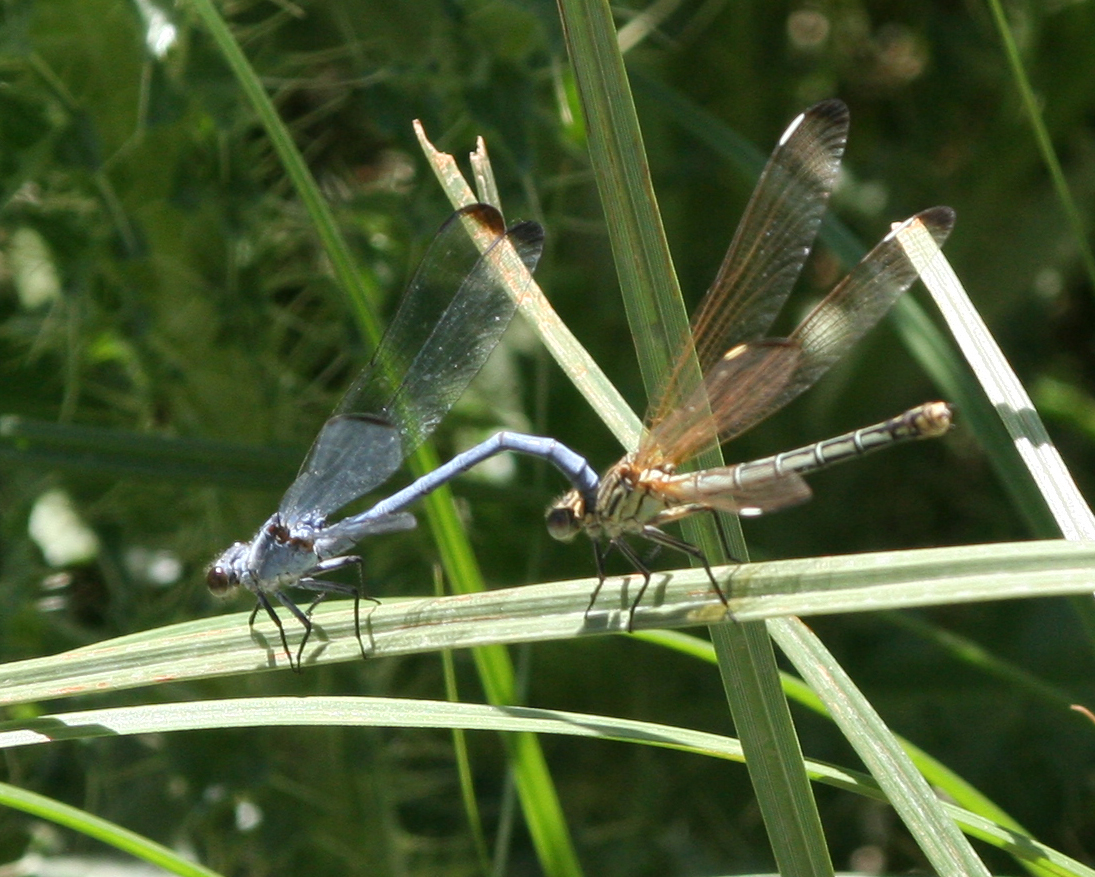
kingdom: Animalia
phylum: Arthropoda
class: Insecta
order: Odonata
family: Euphaeidae
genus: Epallage
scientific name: Epallage fatime
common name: Odalisque
